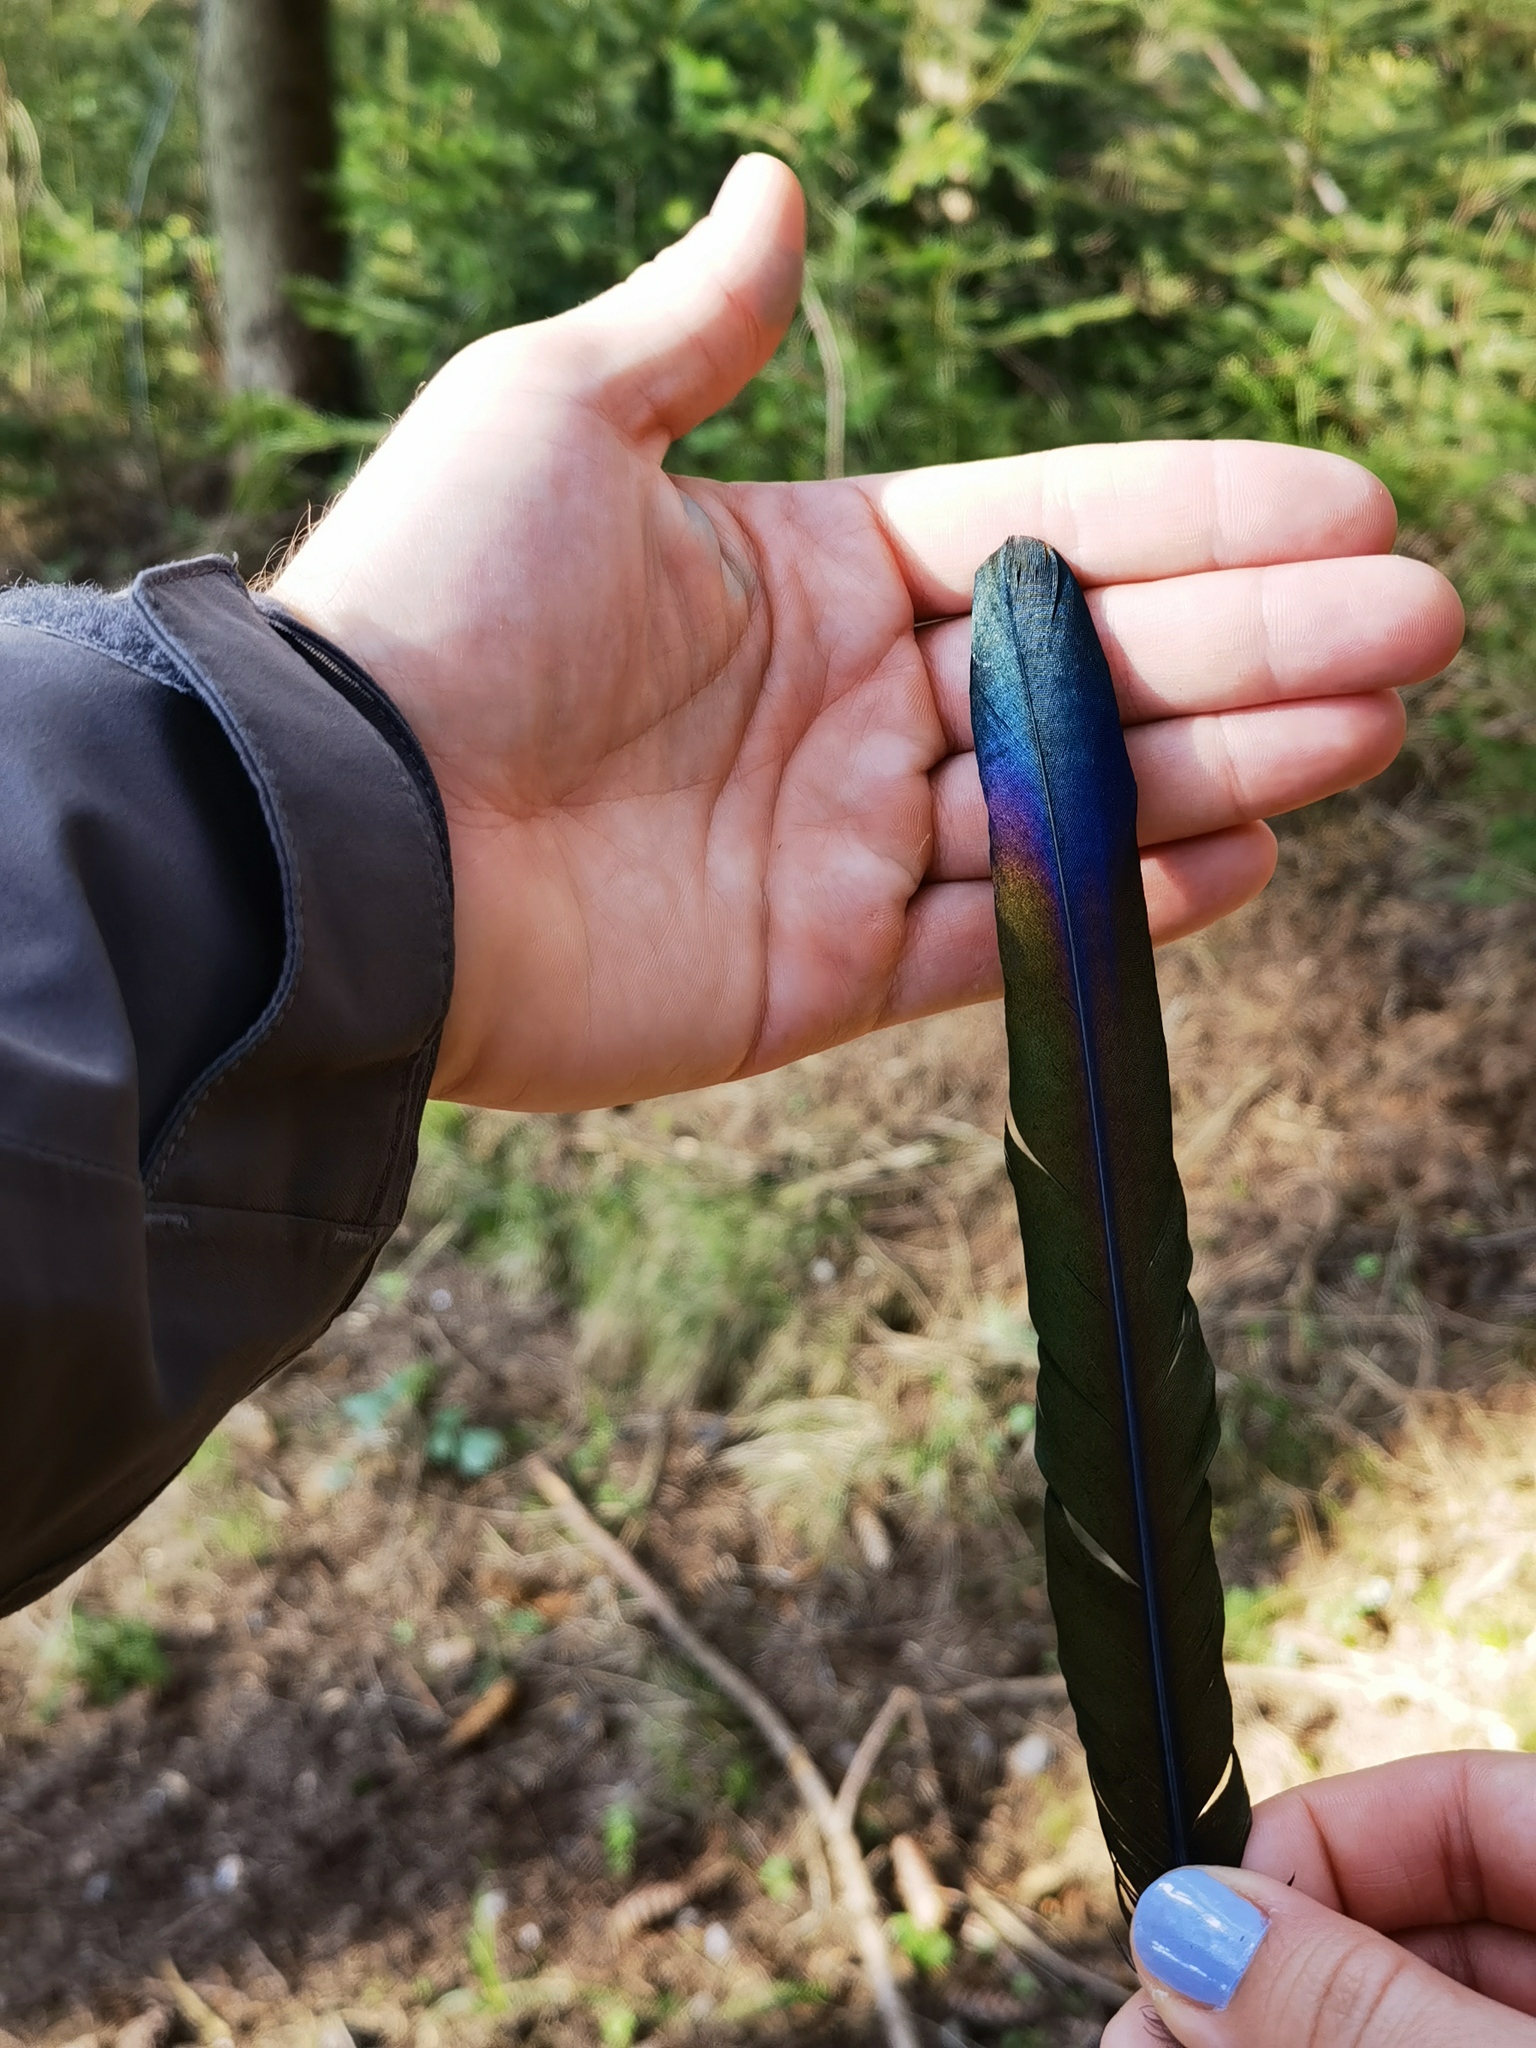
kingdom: Animalia
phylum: Chordata
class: Aves
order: Passeriformes
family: Corvidae
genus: Pica
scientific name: Pica pica
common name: Eurasian magpie
